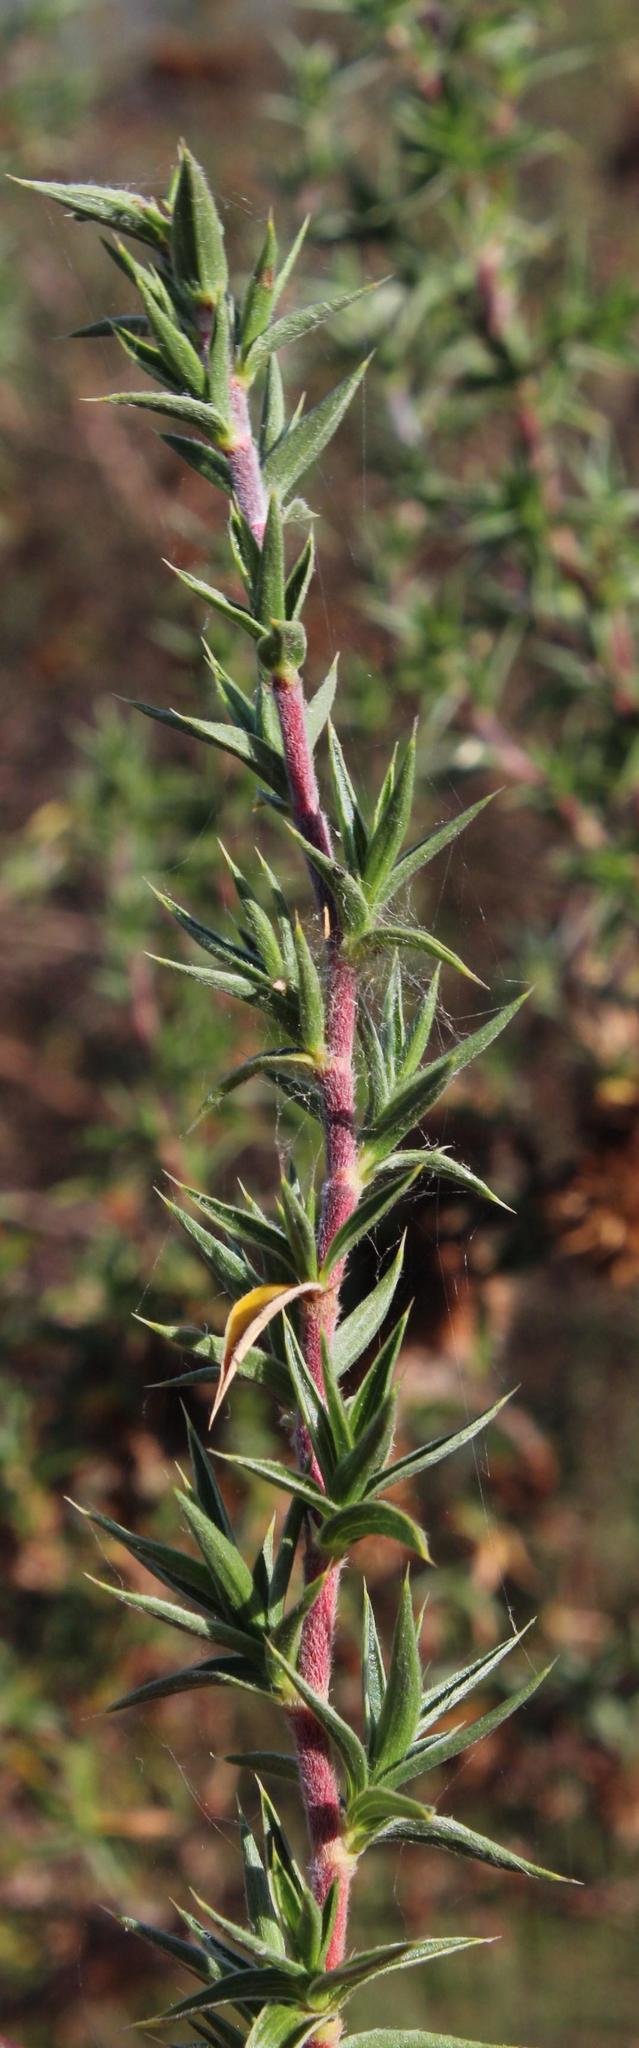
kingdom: Plantae
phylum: Tracheophyta
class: Magnoliopsida
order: Rosales
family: Rosaceae
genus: Cliffortia
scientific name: Cliffortia ruscifolia
